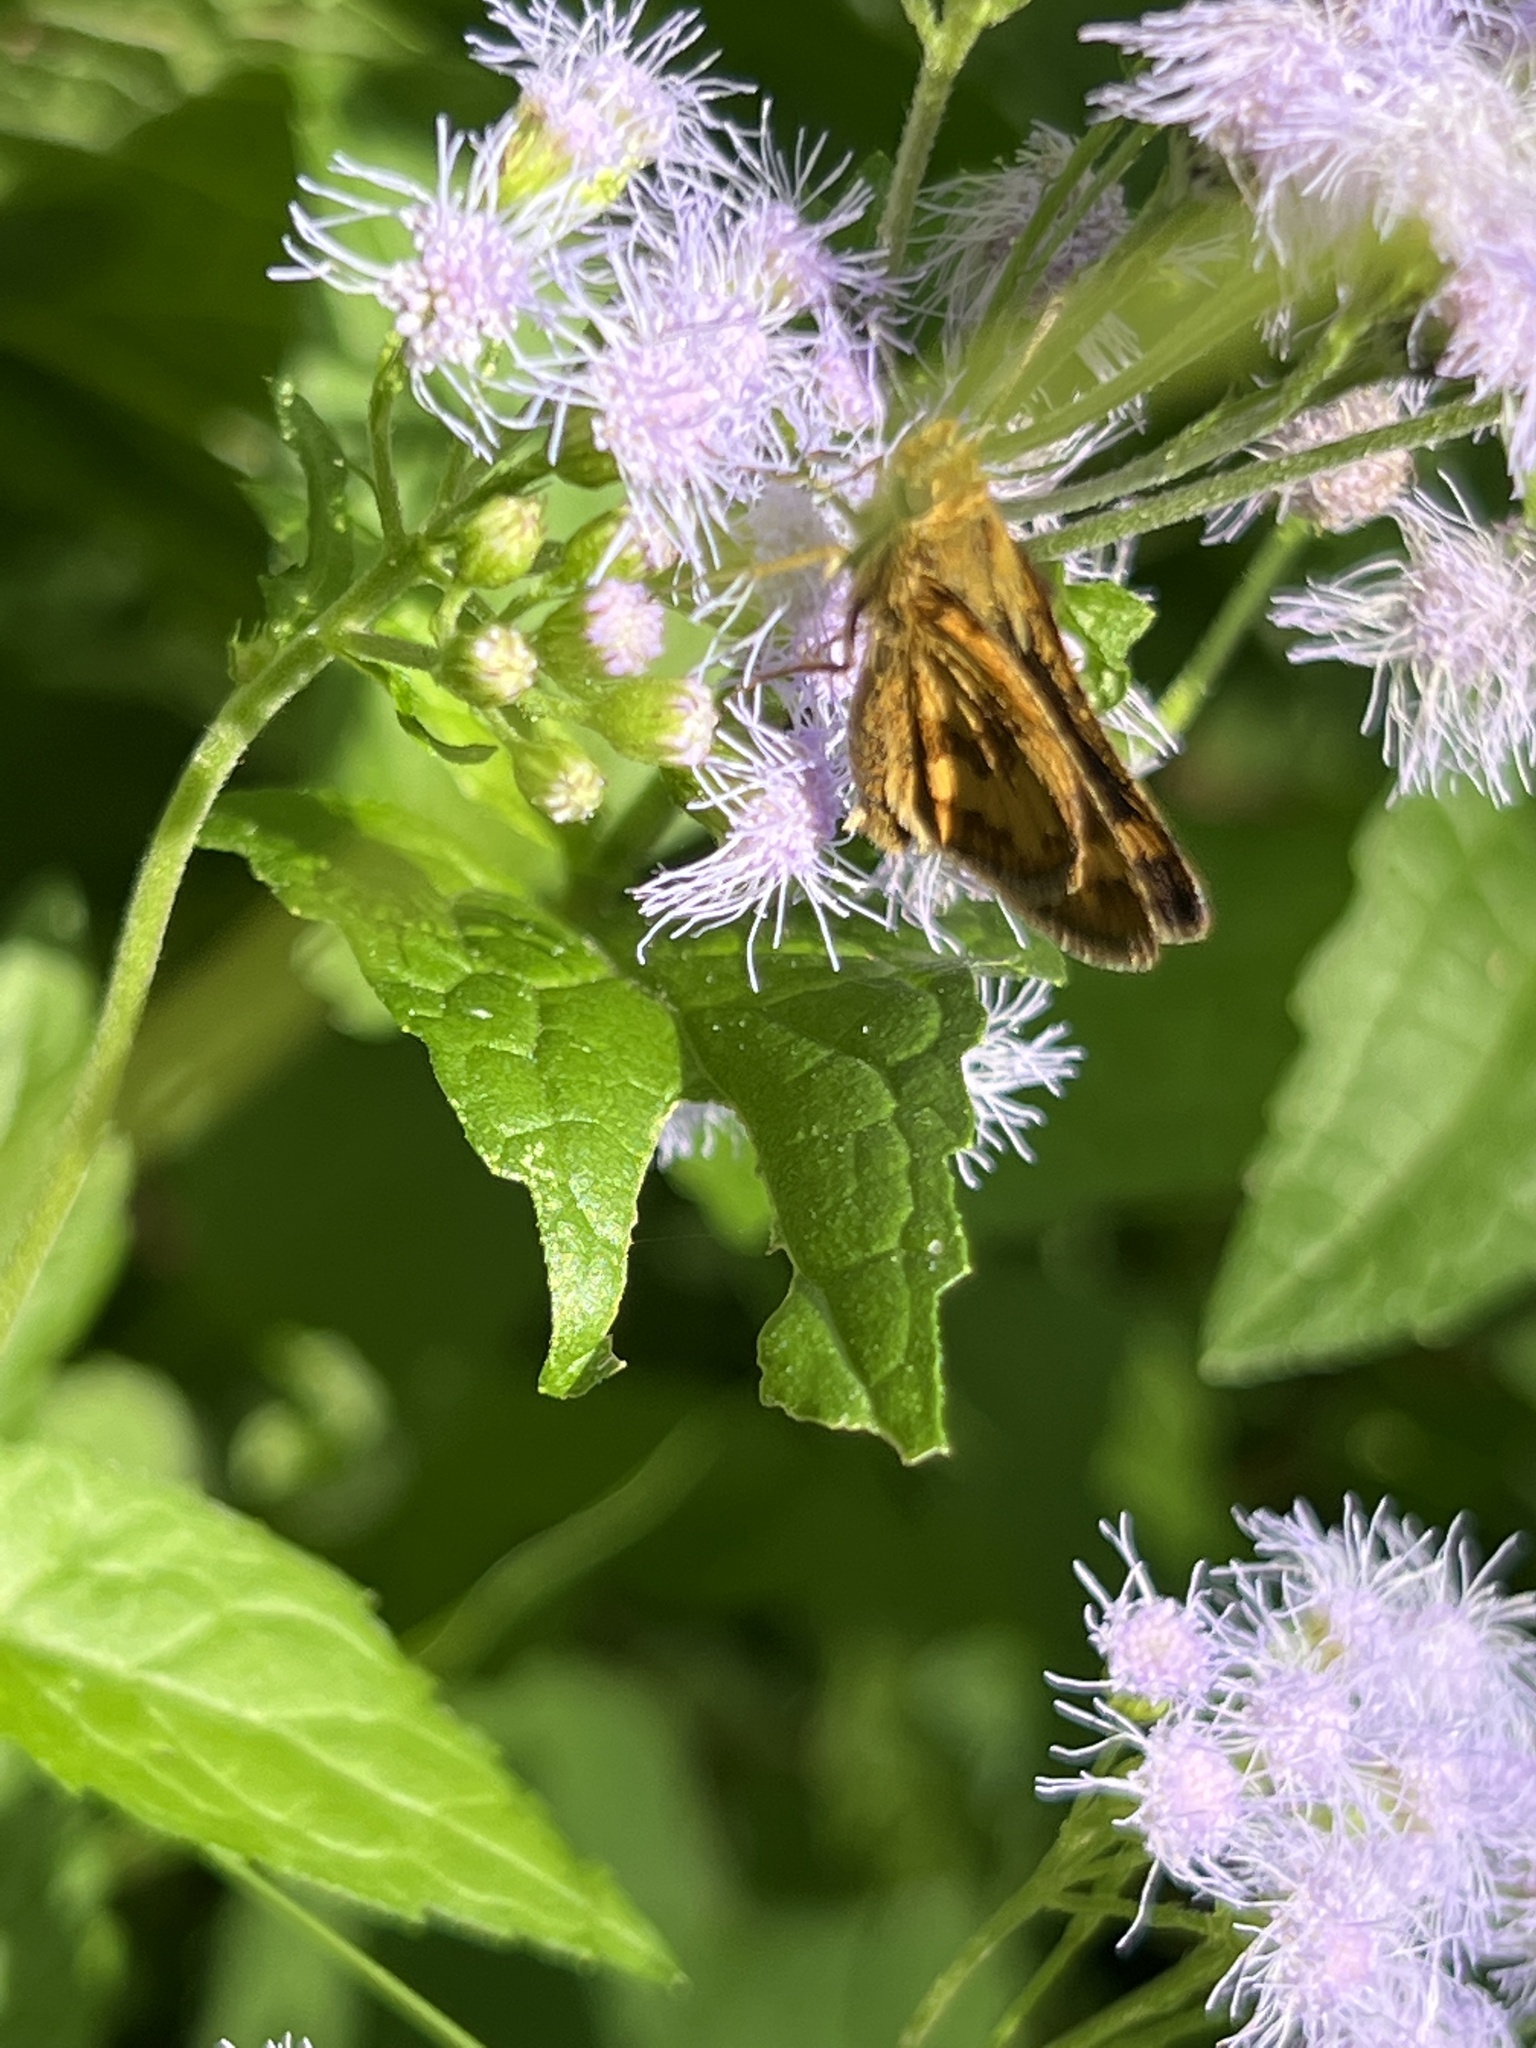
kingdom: Animalia
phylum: Arthropoda
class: Insecta
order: Lepidoptera
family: Hesperiidae
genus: Polites
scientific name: Polites coras
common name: Peck's skipper
